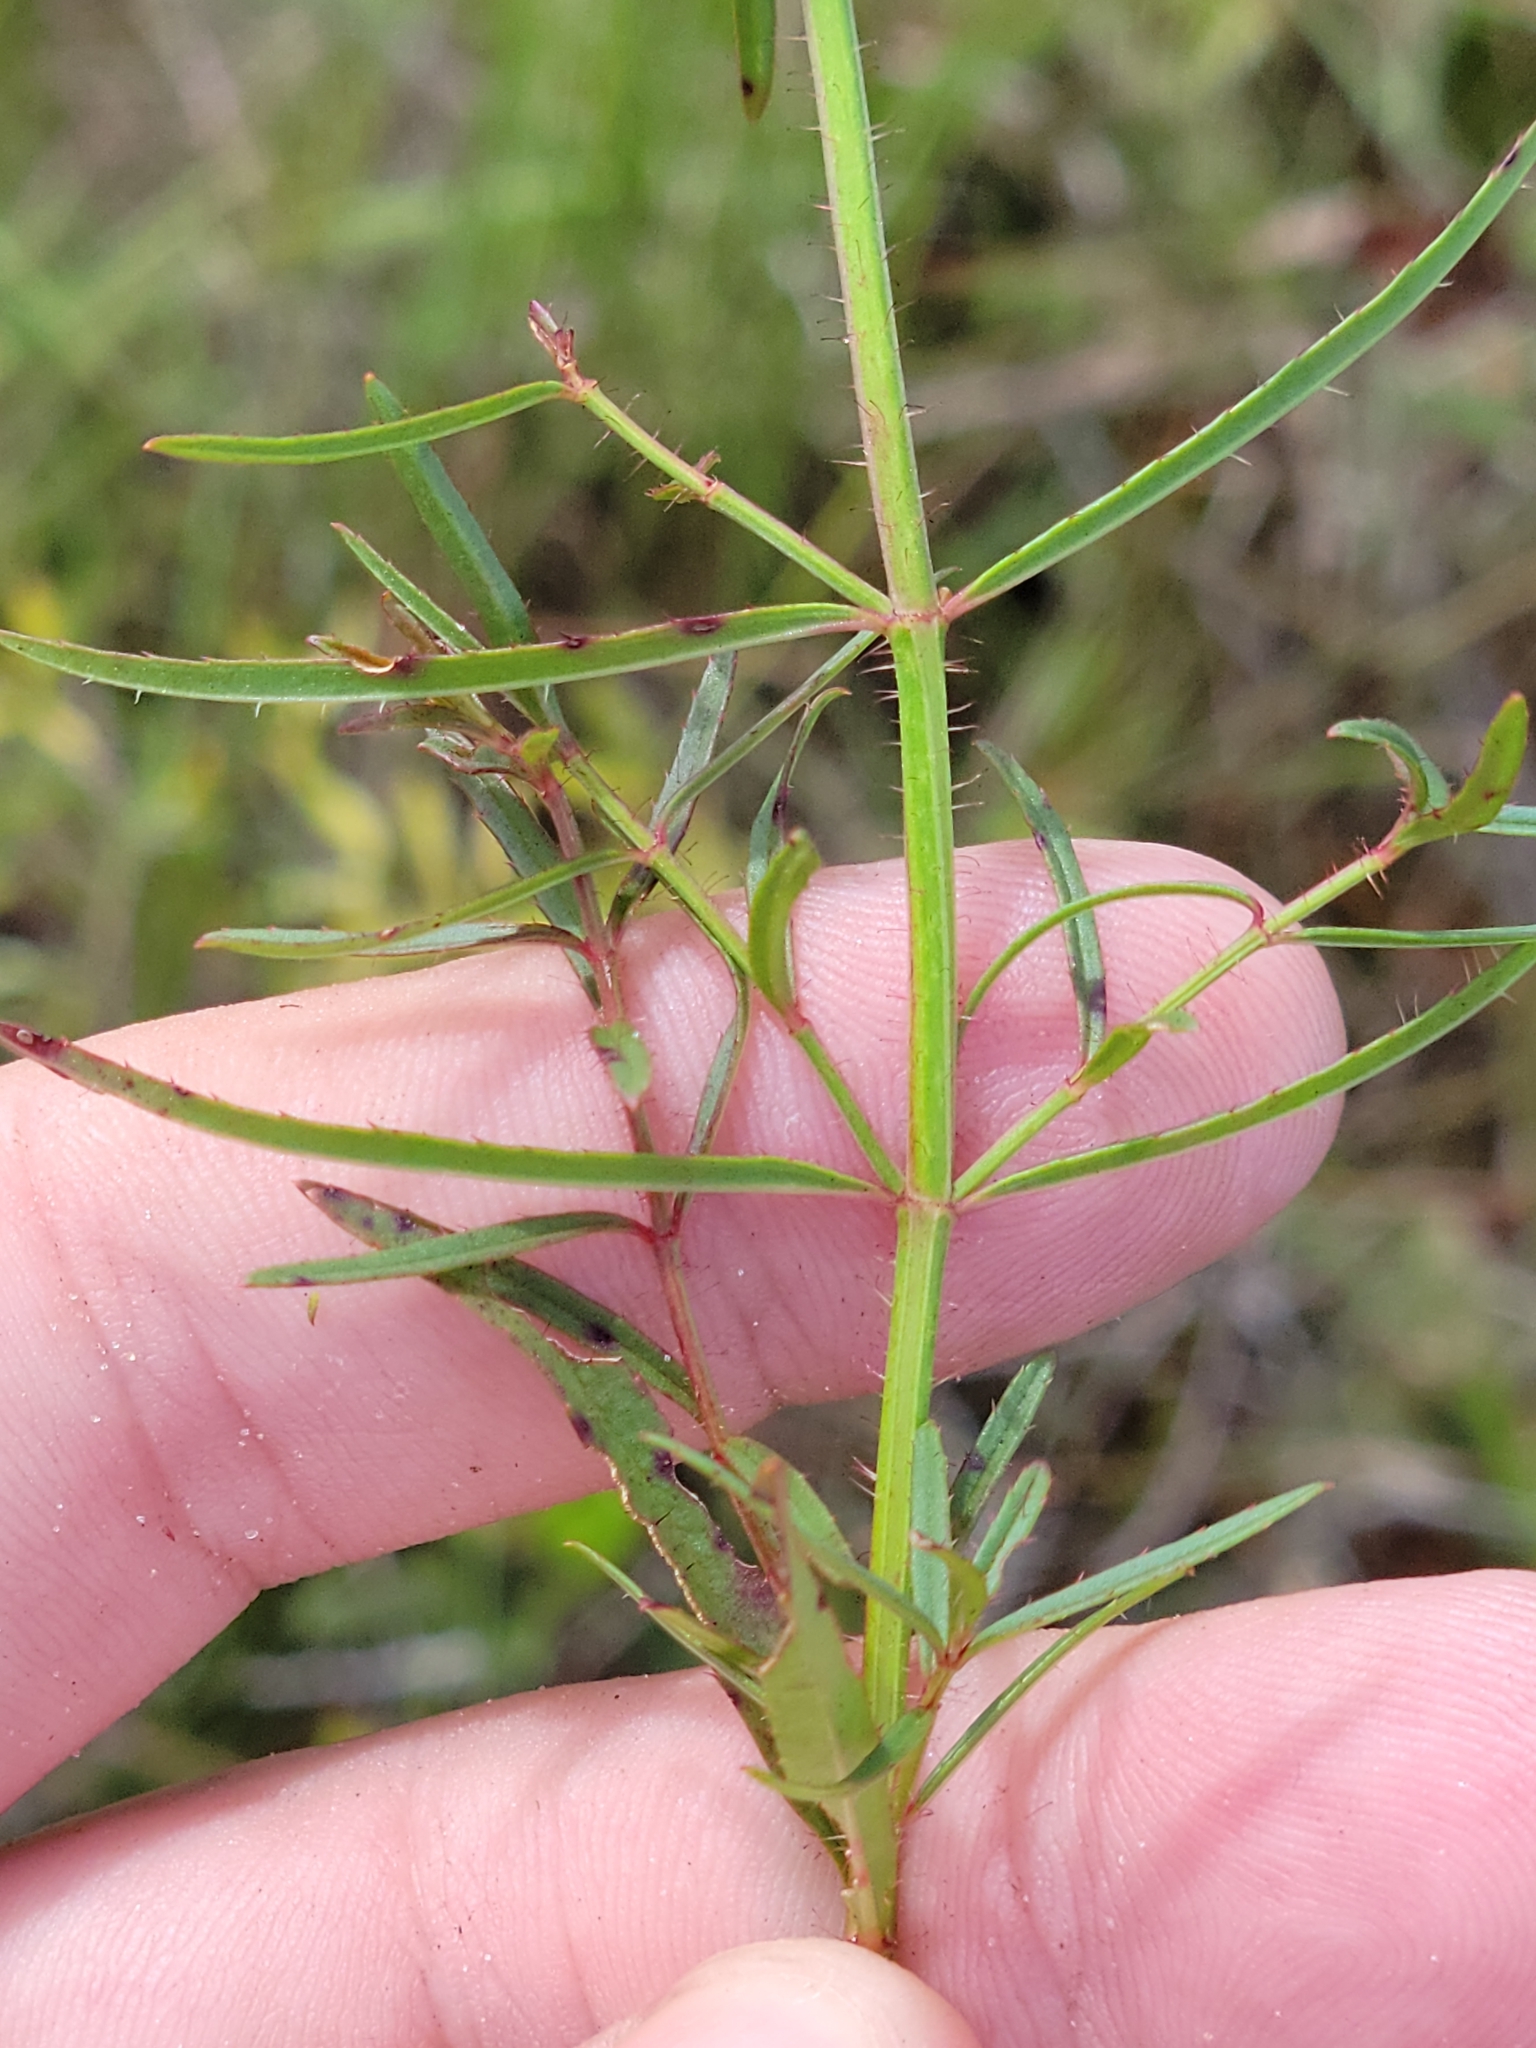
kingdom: Plantae
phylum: Tracheophyta
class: Magnoliopsida
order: Myrtales
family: Melastomataceae
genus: Rhexia
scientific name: Rhexia cubensis
